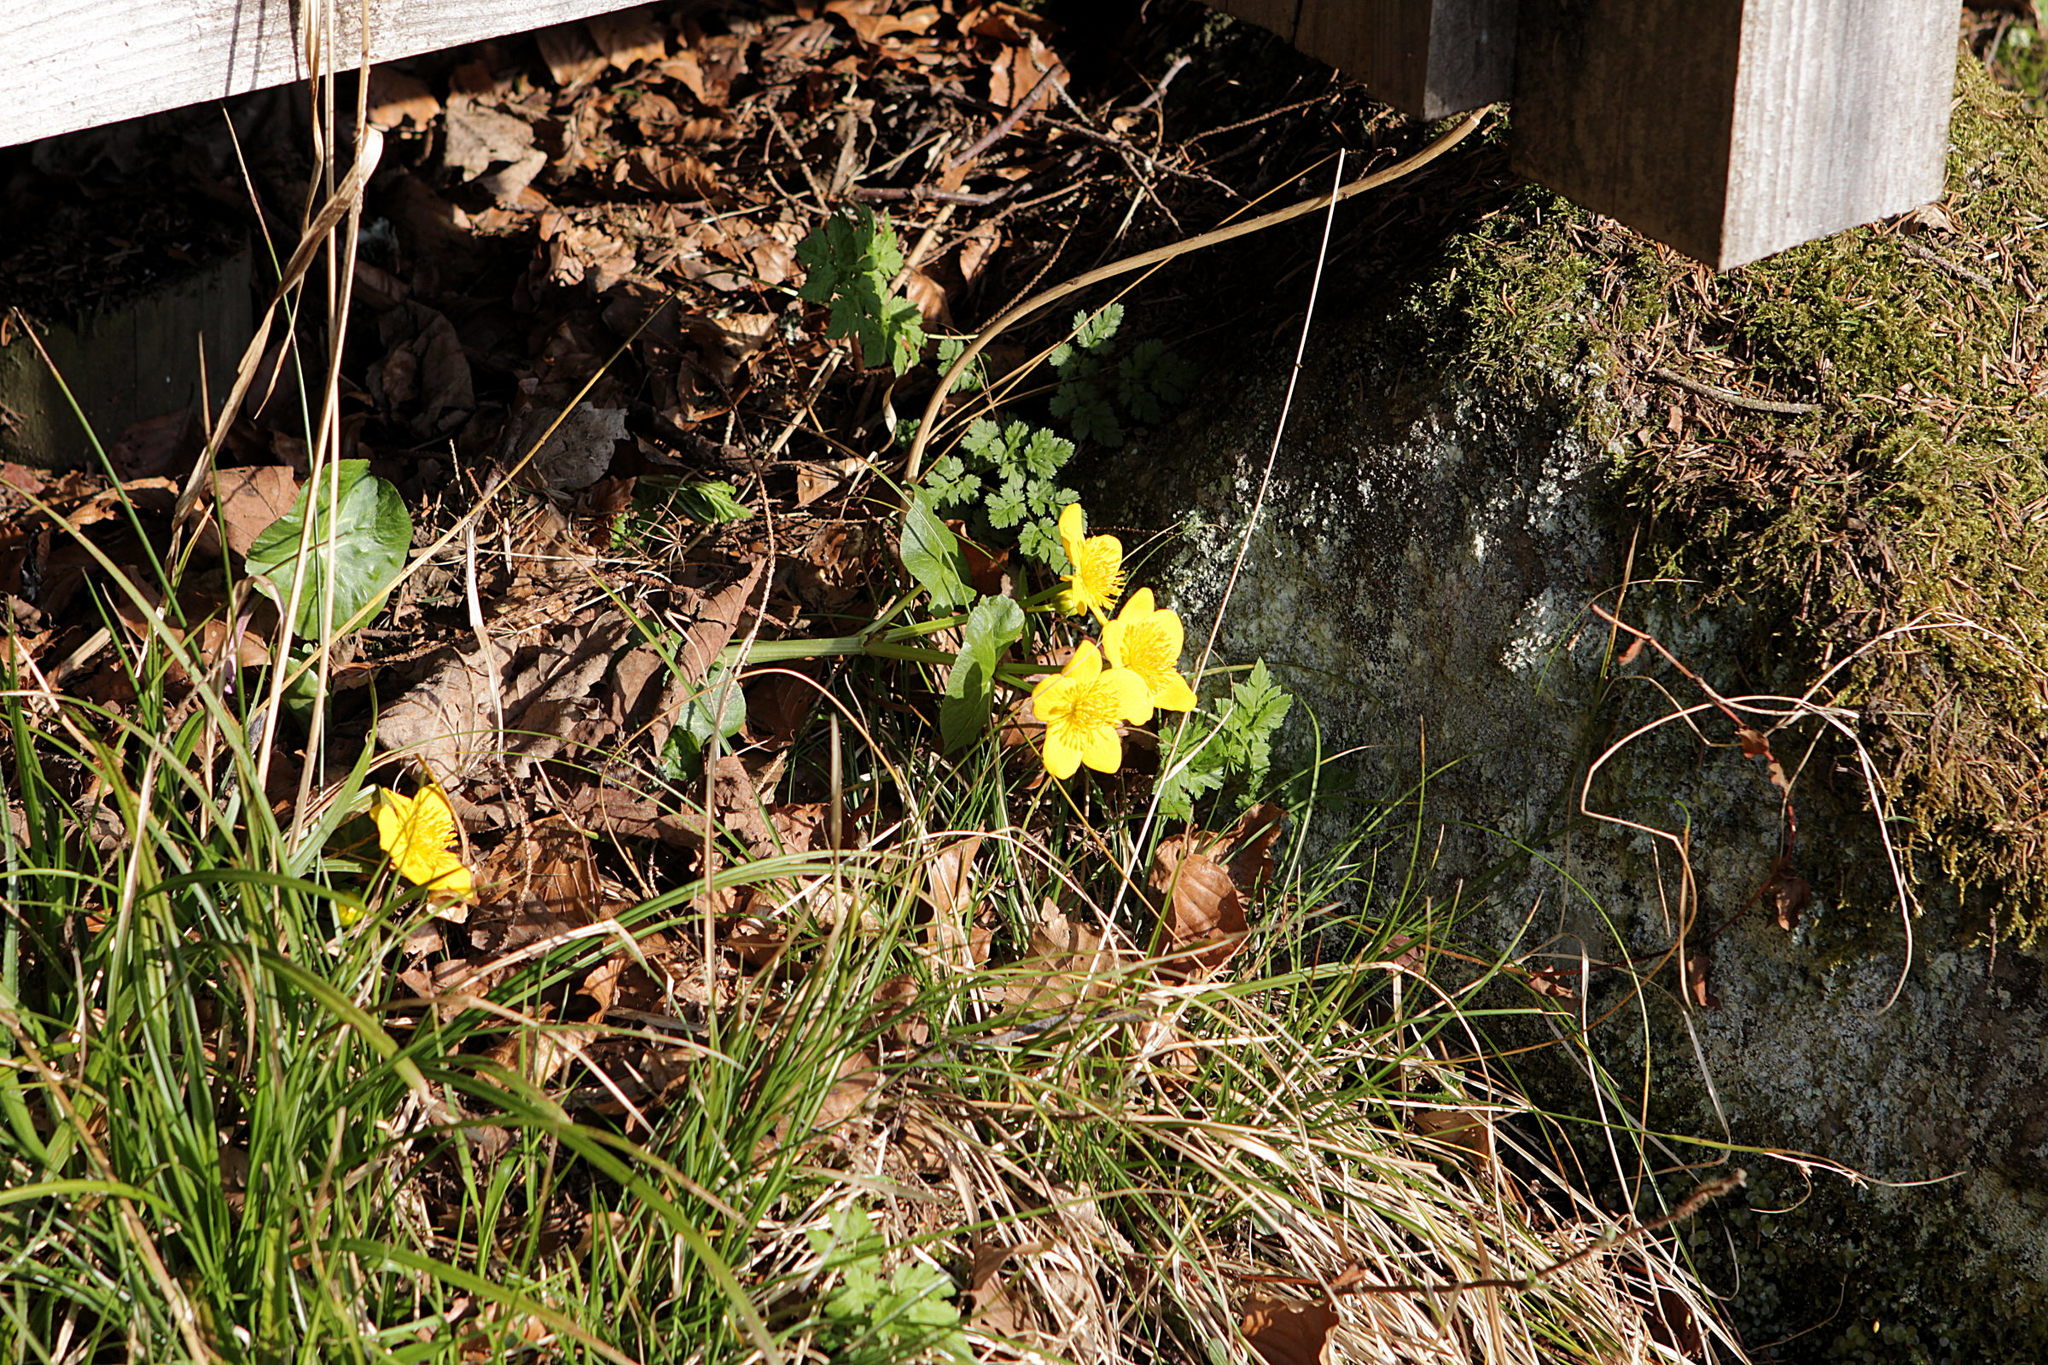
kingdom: Plantae
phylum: Tracheophyta
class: Magnoliopsida
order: Ranunculales
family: Ranunculaceae
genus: Caltha
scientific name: Caltha palustris
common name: Marsh marigold
